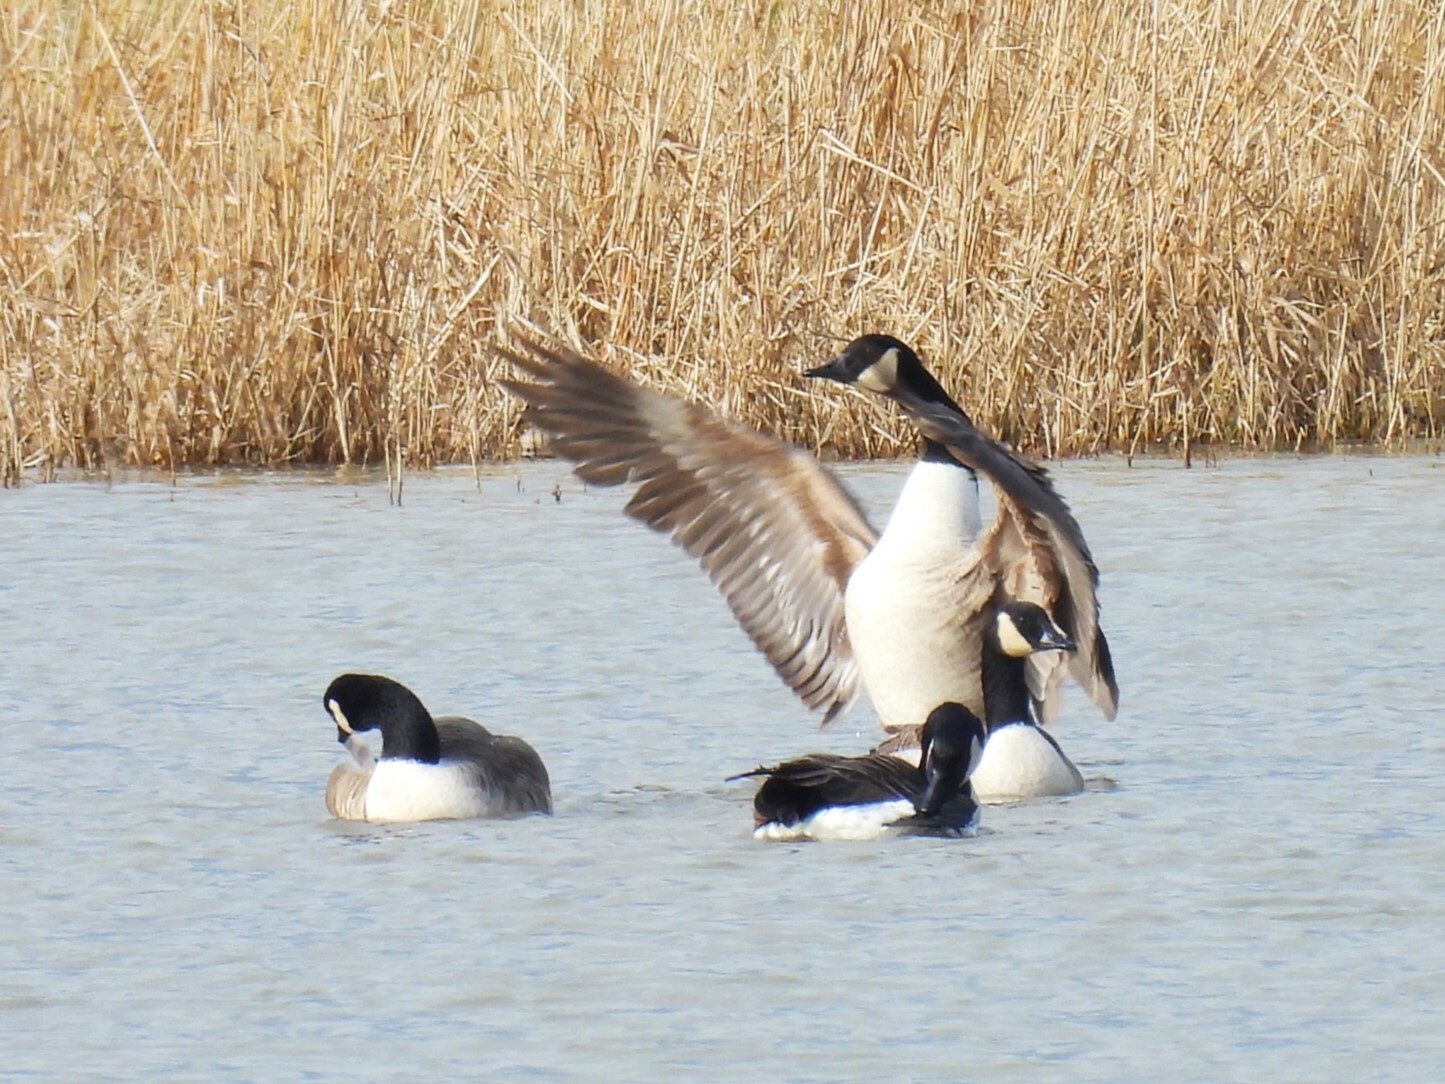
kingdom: Animalia
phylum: Chordata
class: Aves
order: Anseriformes
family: Anatidae
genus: Branta
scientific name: Branta canadensis
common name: Canada goose
